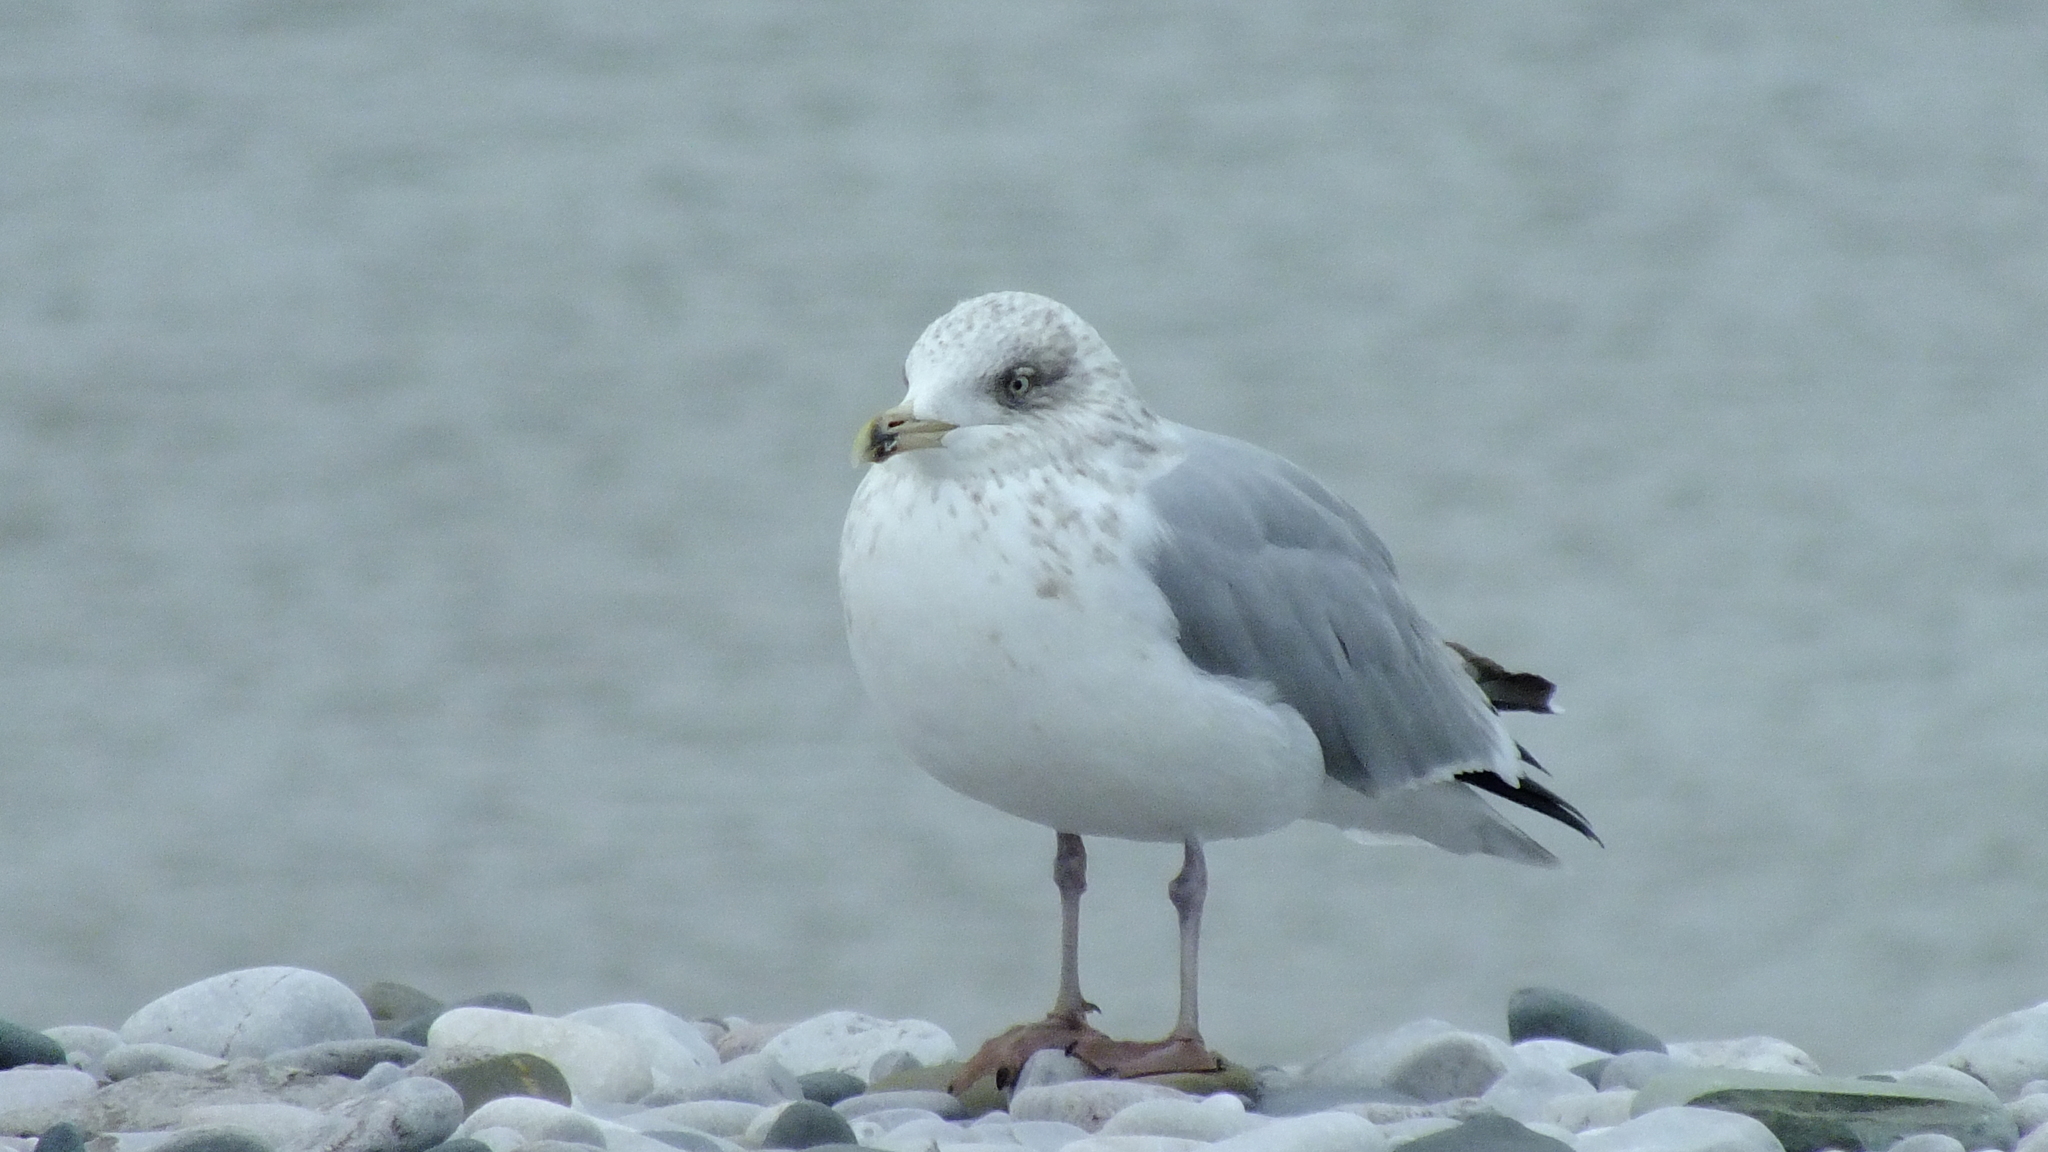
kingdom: Animalia
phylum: Chordata
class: Aves
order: Charadriiformes
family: Laridae
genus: Larus
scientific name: Larus argentatus
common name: Herring gull
